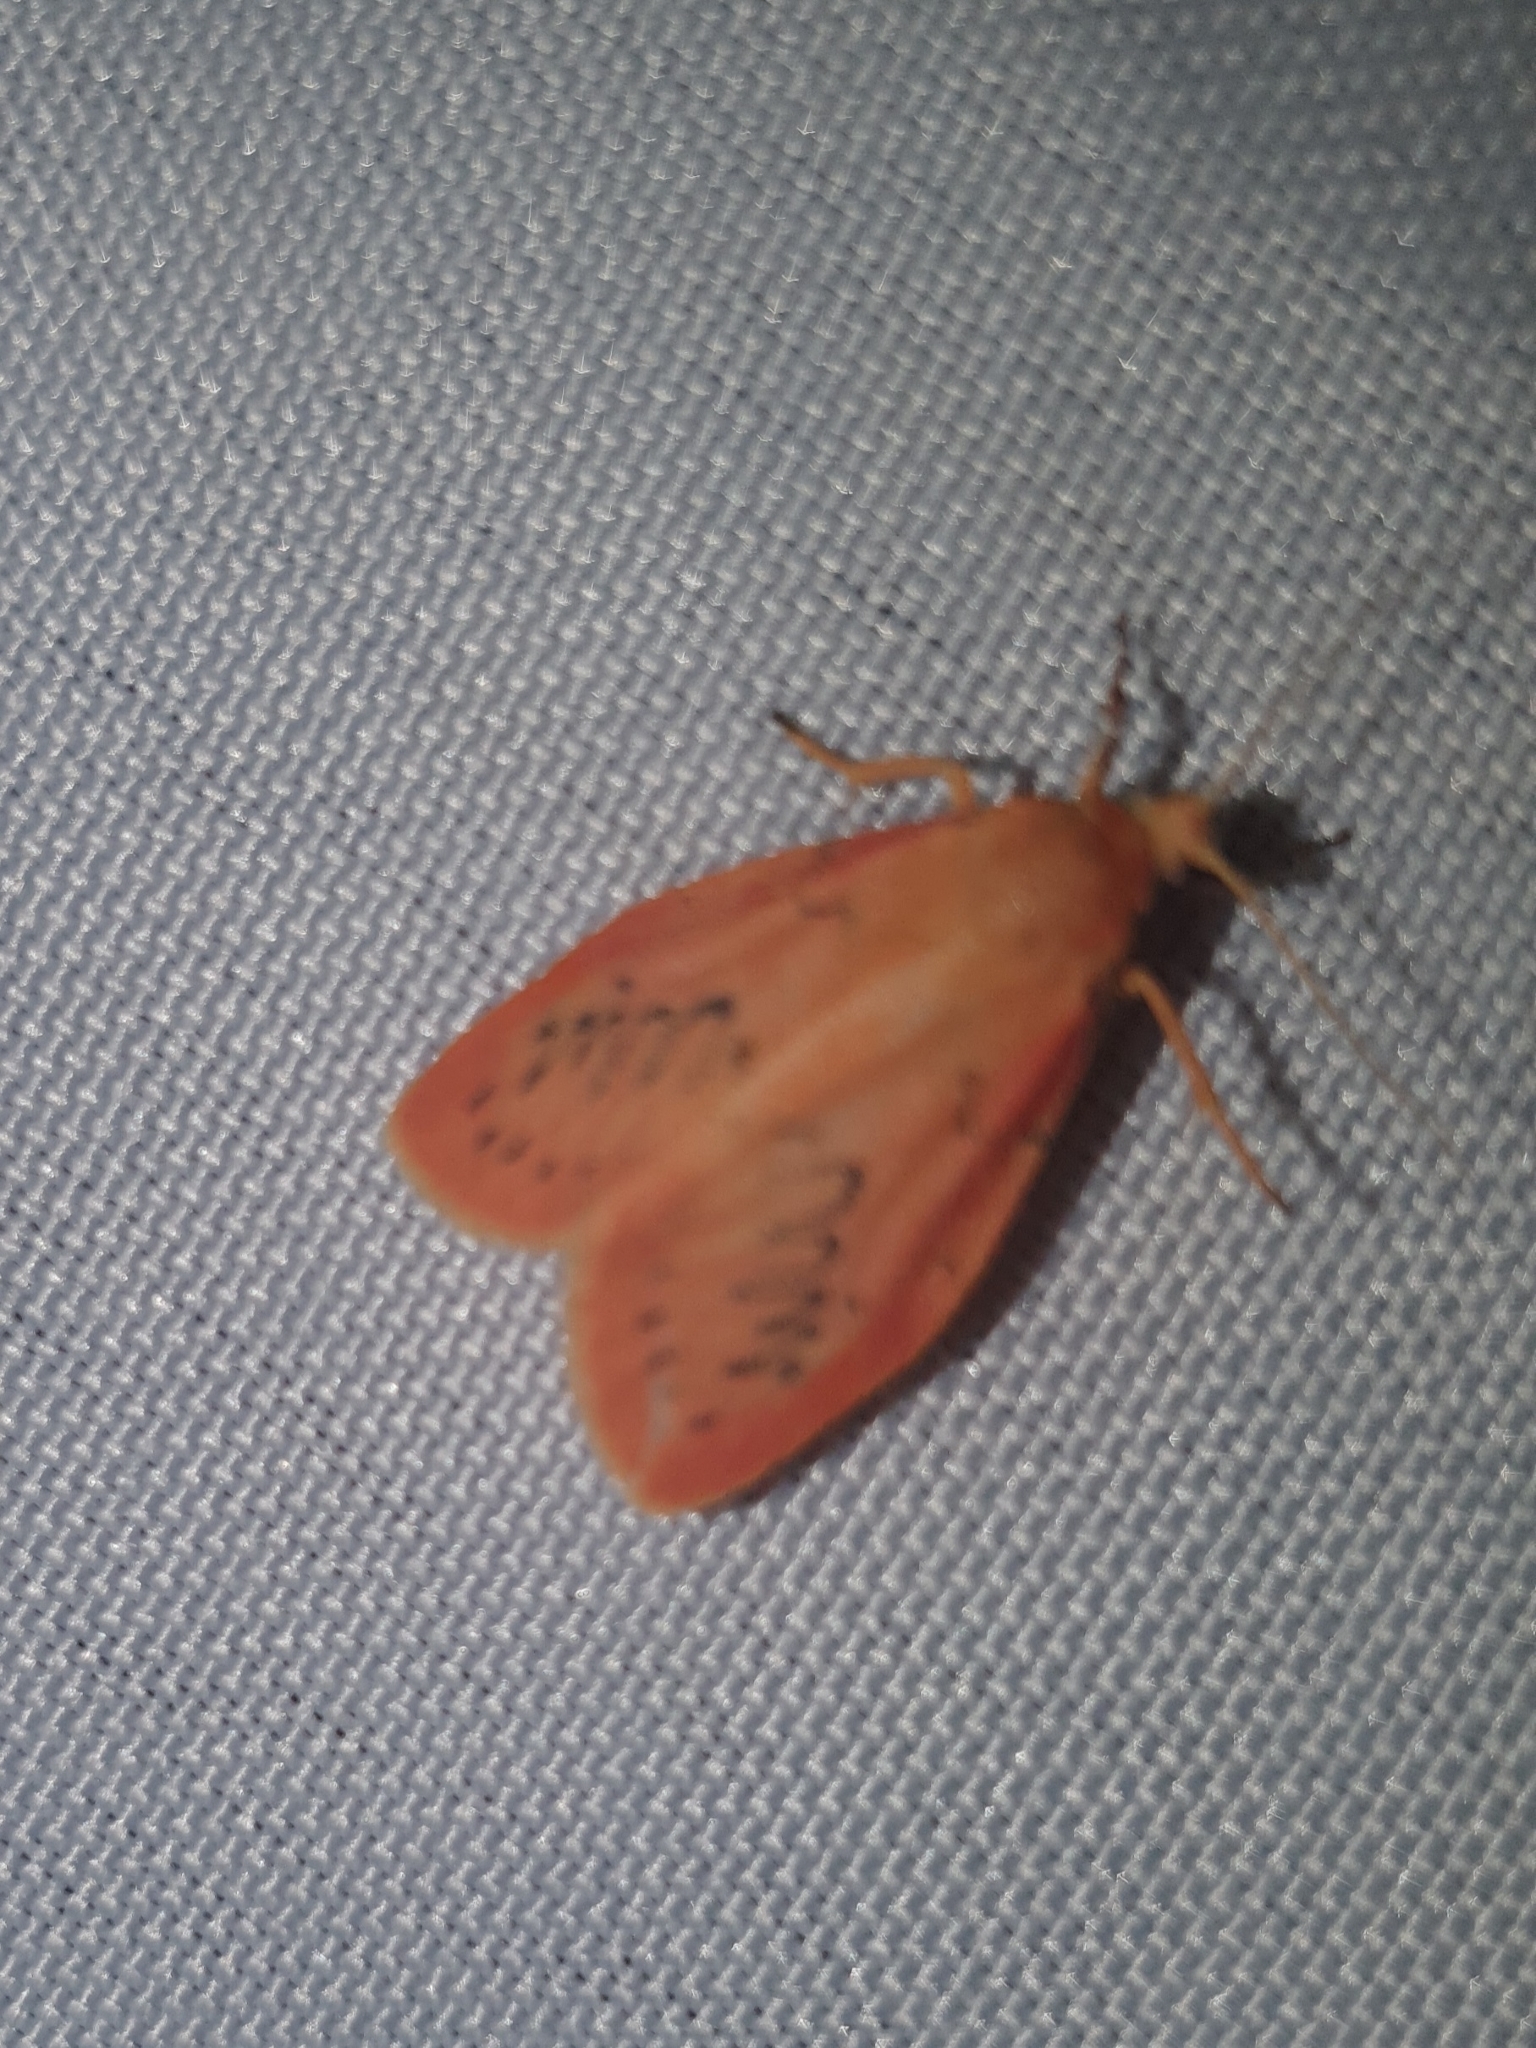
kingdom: Animalia
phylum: Arthropoda
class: Insecta
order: Lepidoptera
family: Erebidae
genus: Miltochrista
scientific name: Miltochrista miniata
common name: Rosy footman
